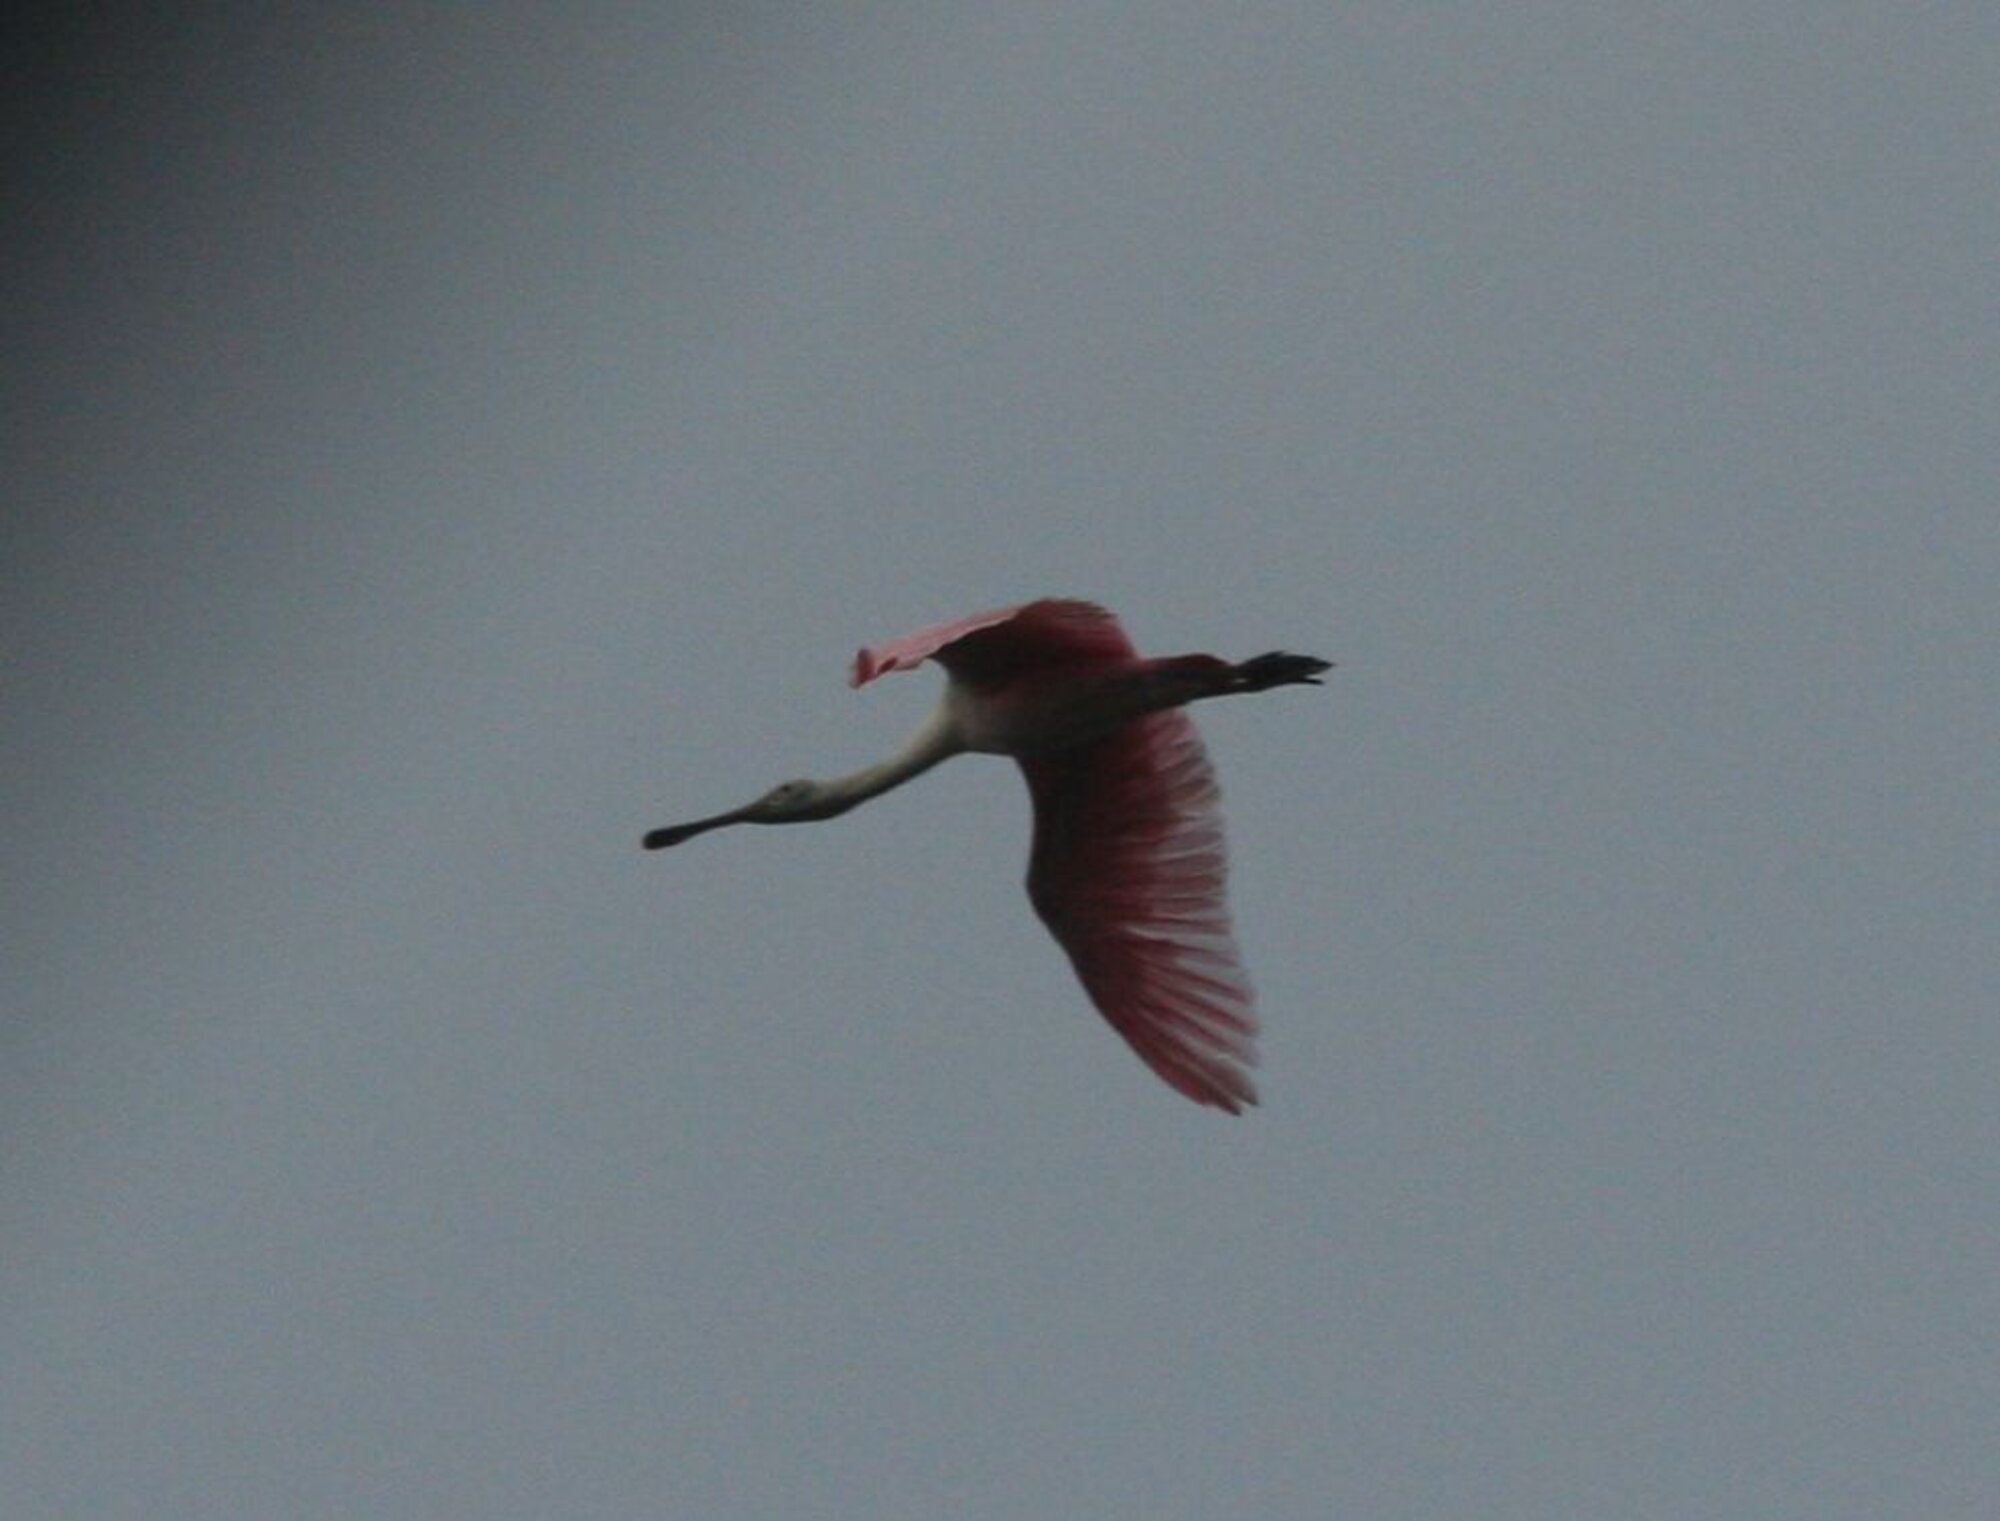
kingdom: Animalia
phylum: Chordata
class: Aves
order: Pelecaniformes
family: Threskiornithidae
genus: Platalea
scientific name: Platalea ajaja
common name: Roseate spoonbill
